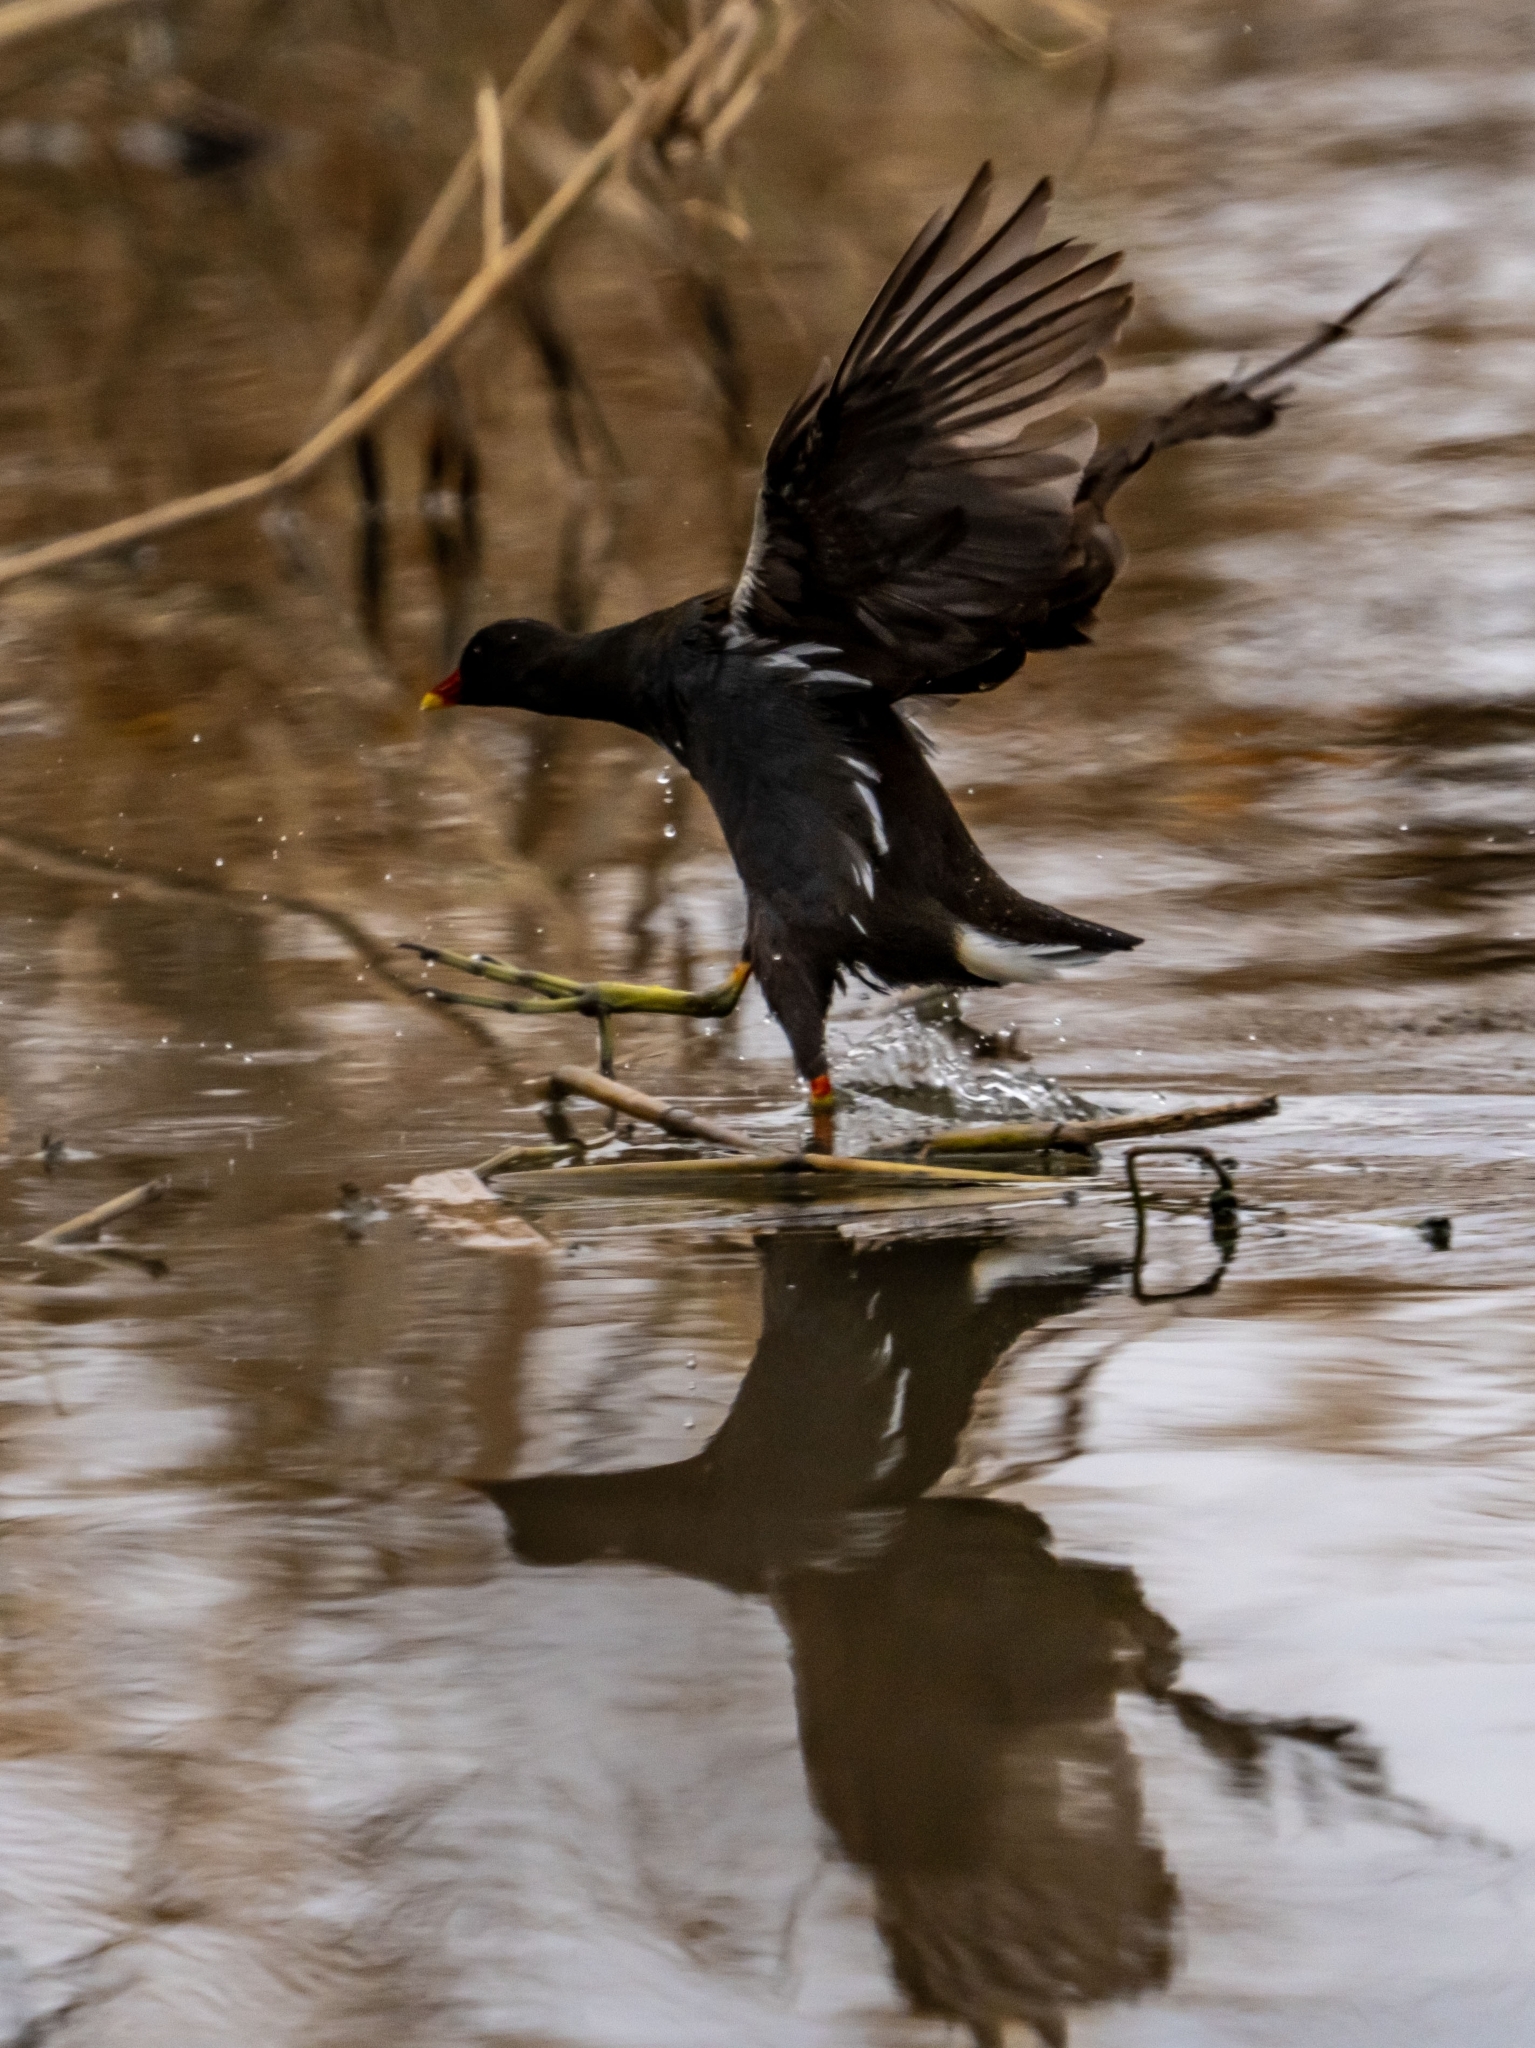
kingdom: Animalia
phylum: Chordata
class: Aves
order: Gruiformes
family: Rallidae
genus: Gallinula
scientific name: Gallinula chloropus
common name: Common moorhen
